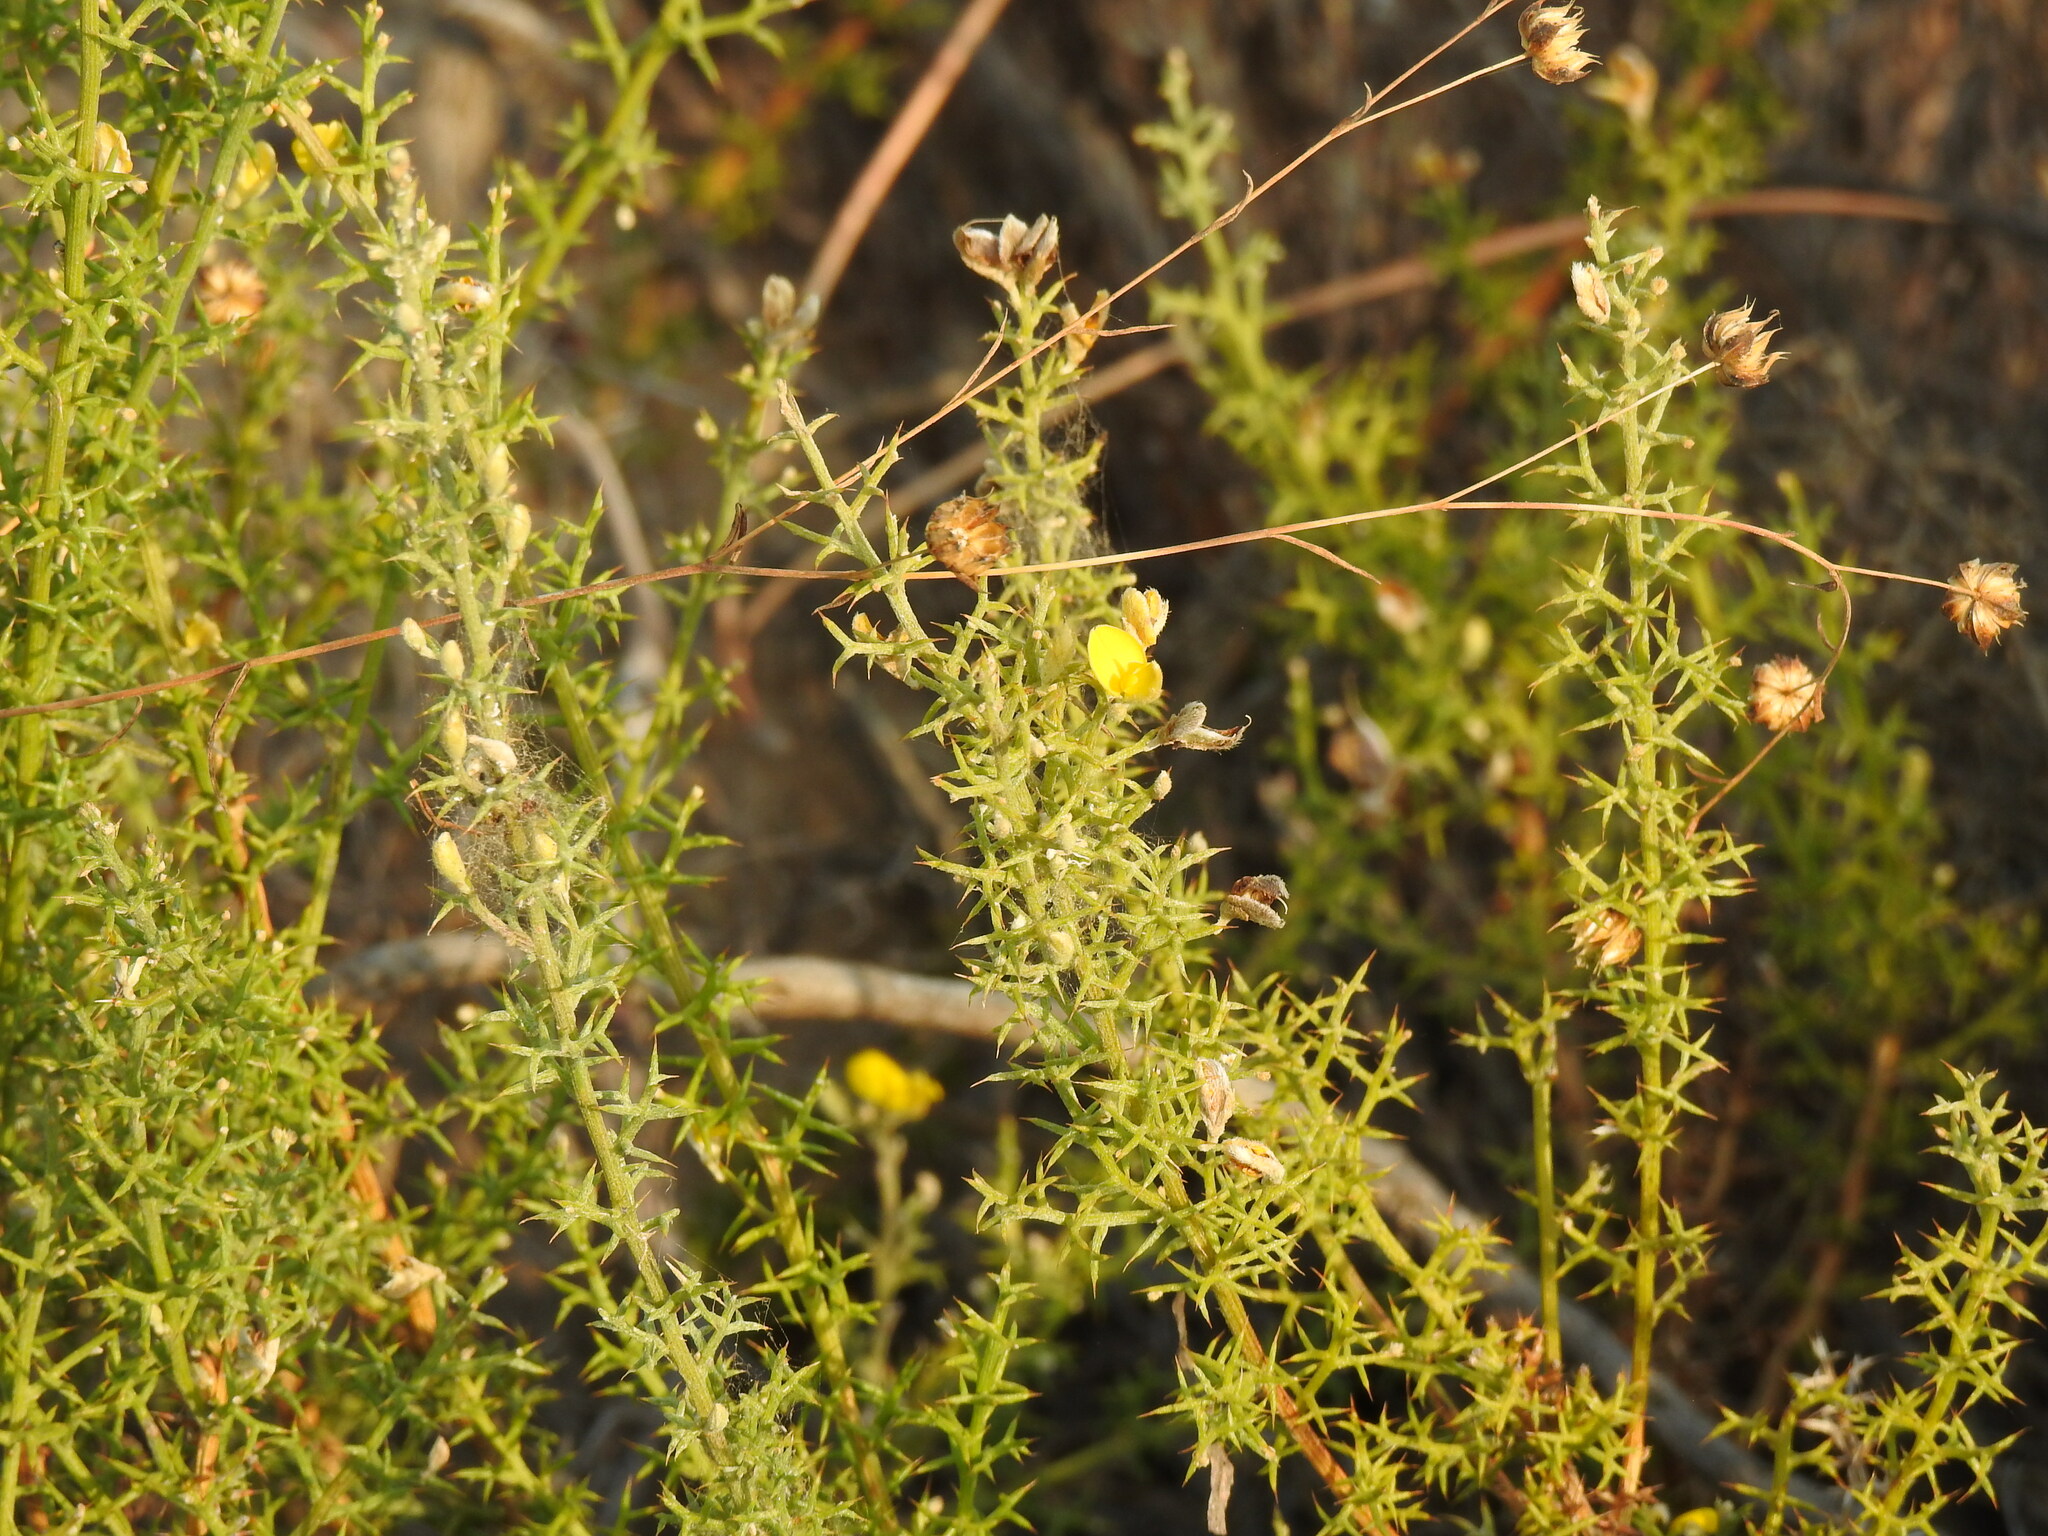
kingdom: Plantae
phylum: Tracheophyta
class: Magnoliopsida
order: Fabales
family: Fabaceae
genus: Stauracanthus
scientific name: Stauracanthus boivinii
